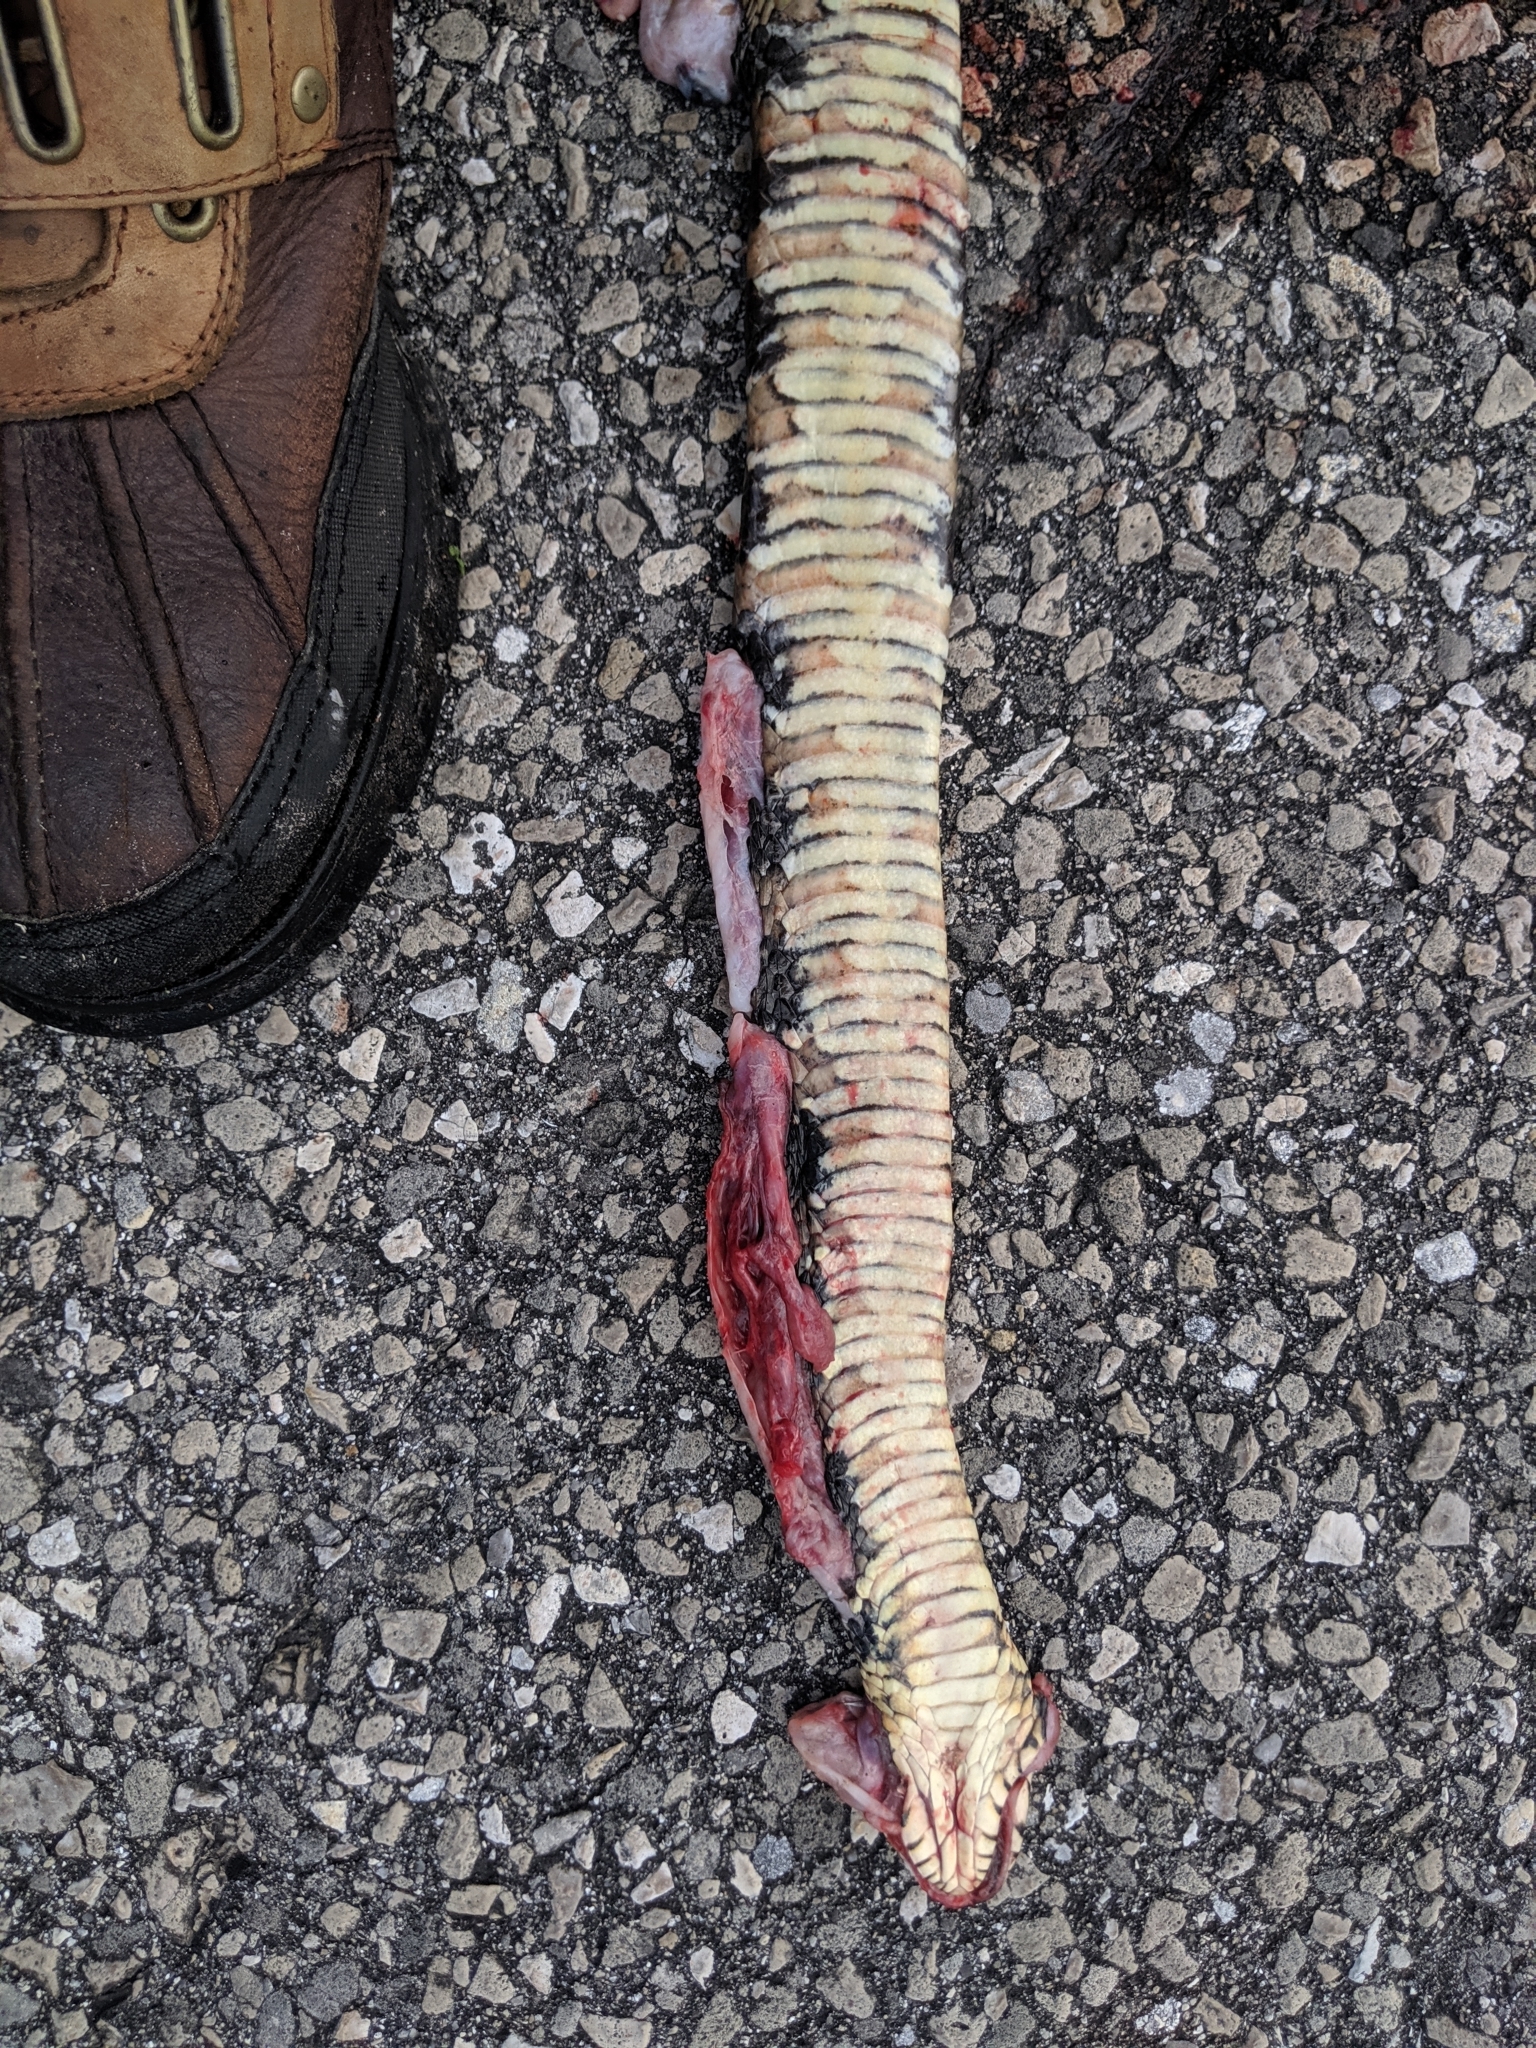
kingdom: Animalia
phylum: Chordata
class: Squamata
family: Colubridae
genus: Nerodia
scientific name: Nerodia fasciata
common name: Southern water snake
